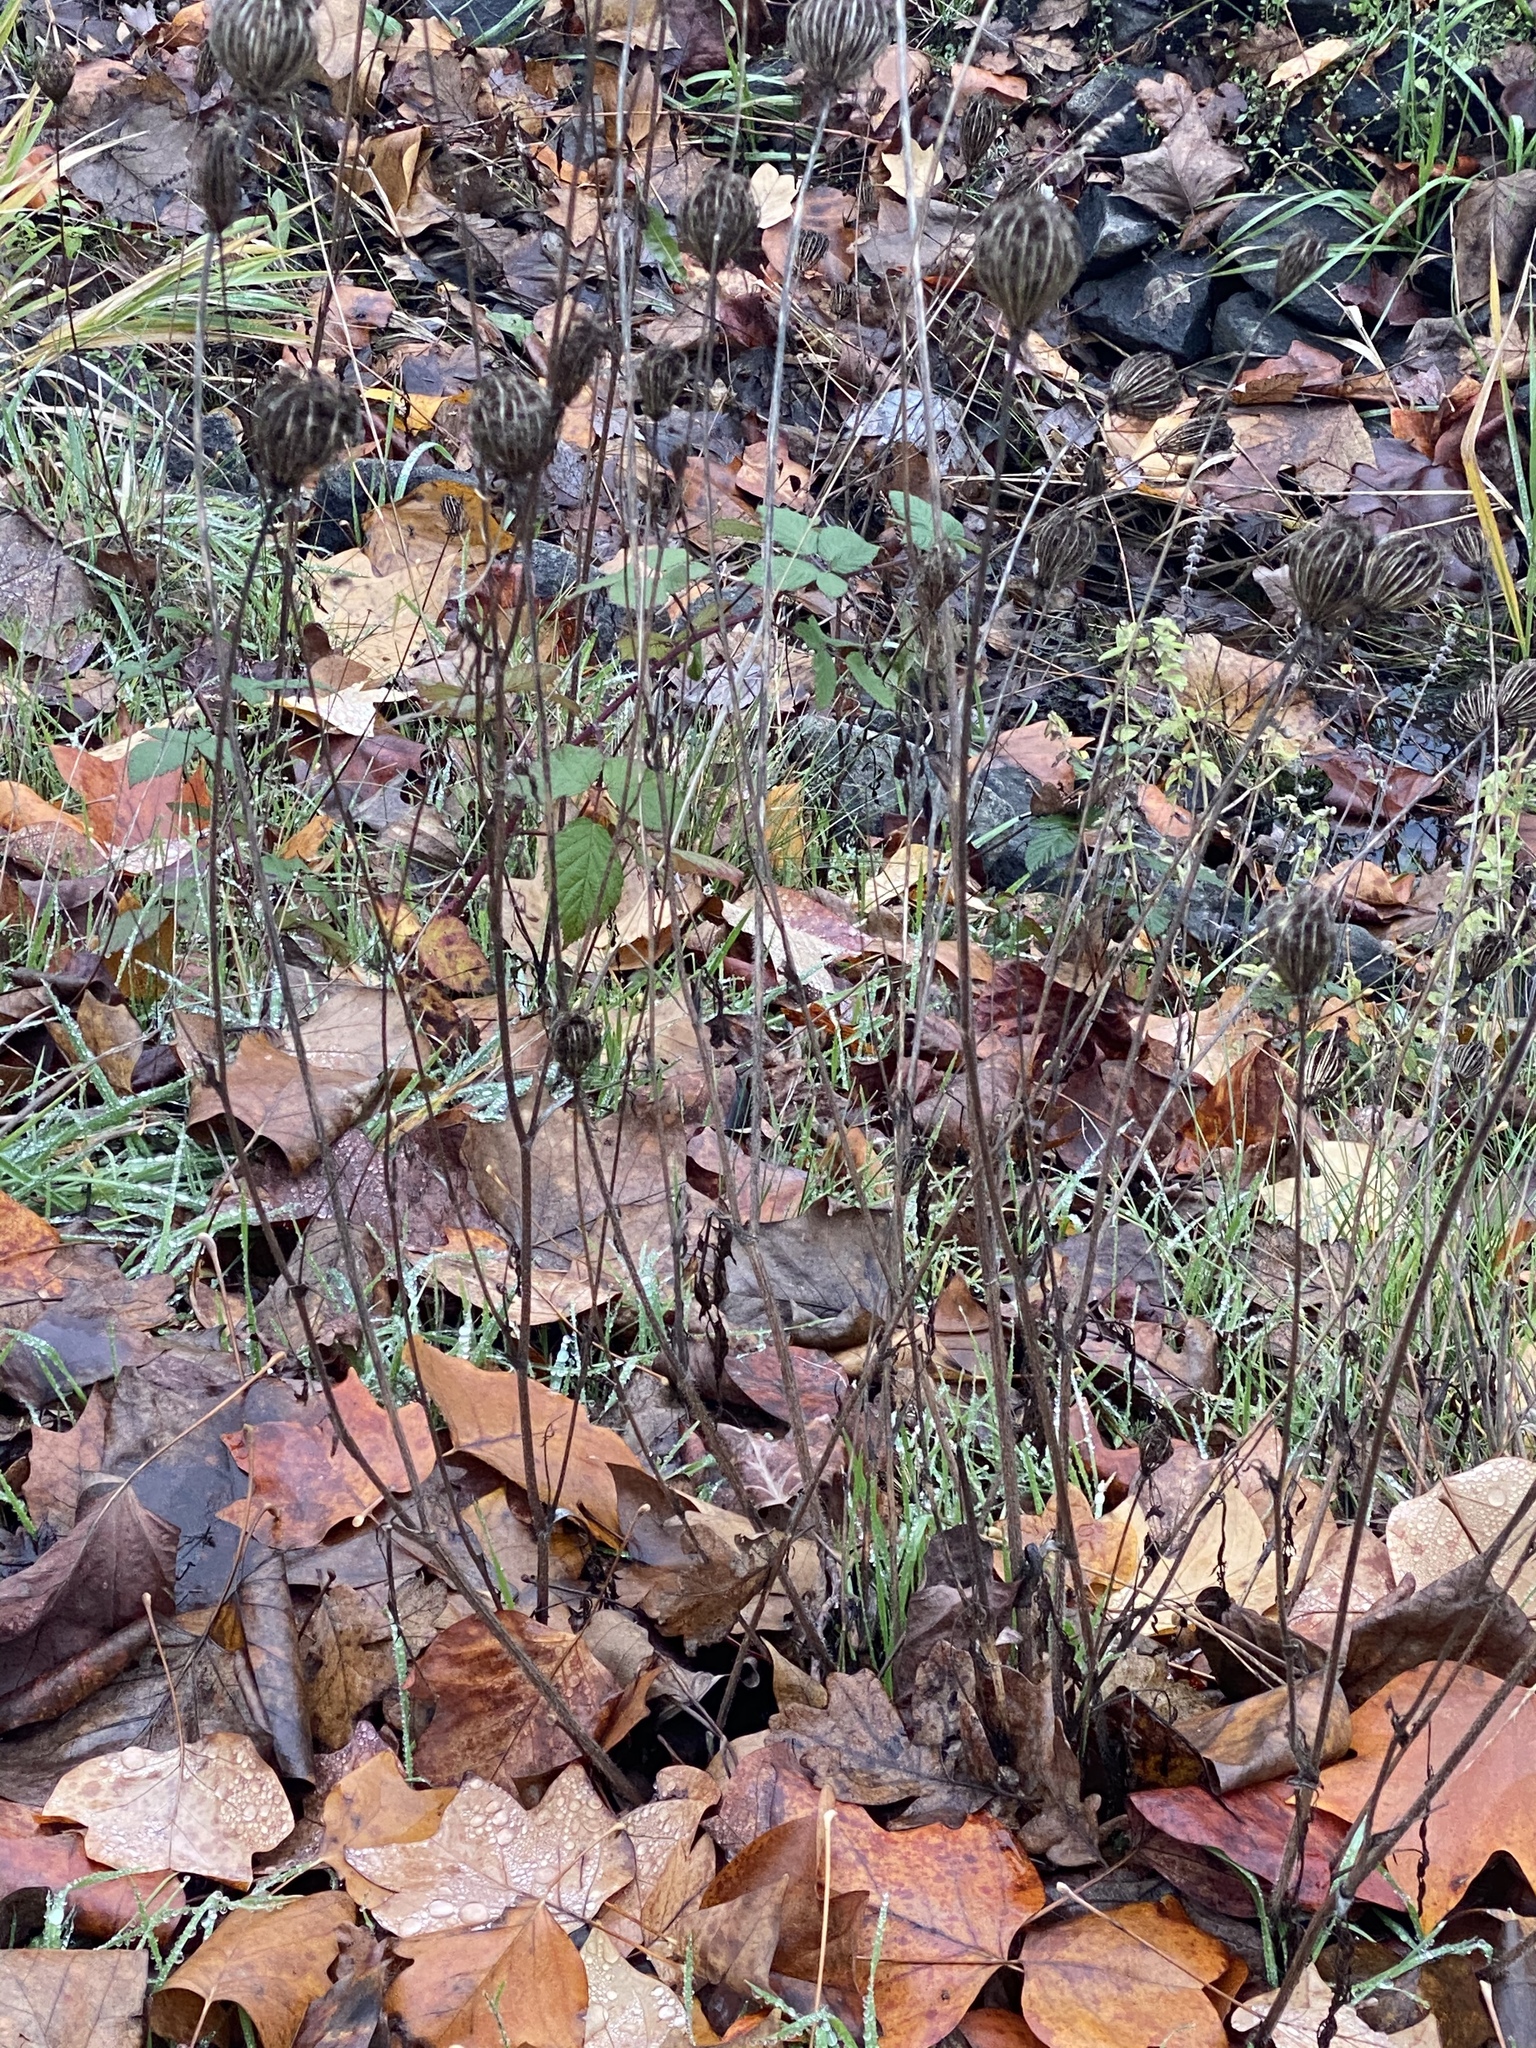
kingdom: Plantae
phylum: Tracheophyta
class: Magnoliopsida
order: Apiales
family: Apiaceae
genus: Daucus
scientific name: Daucus carota
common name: Wild carrot
